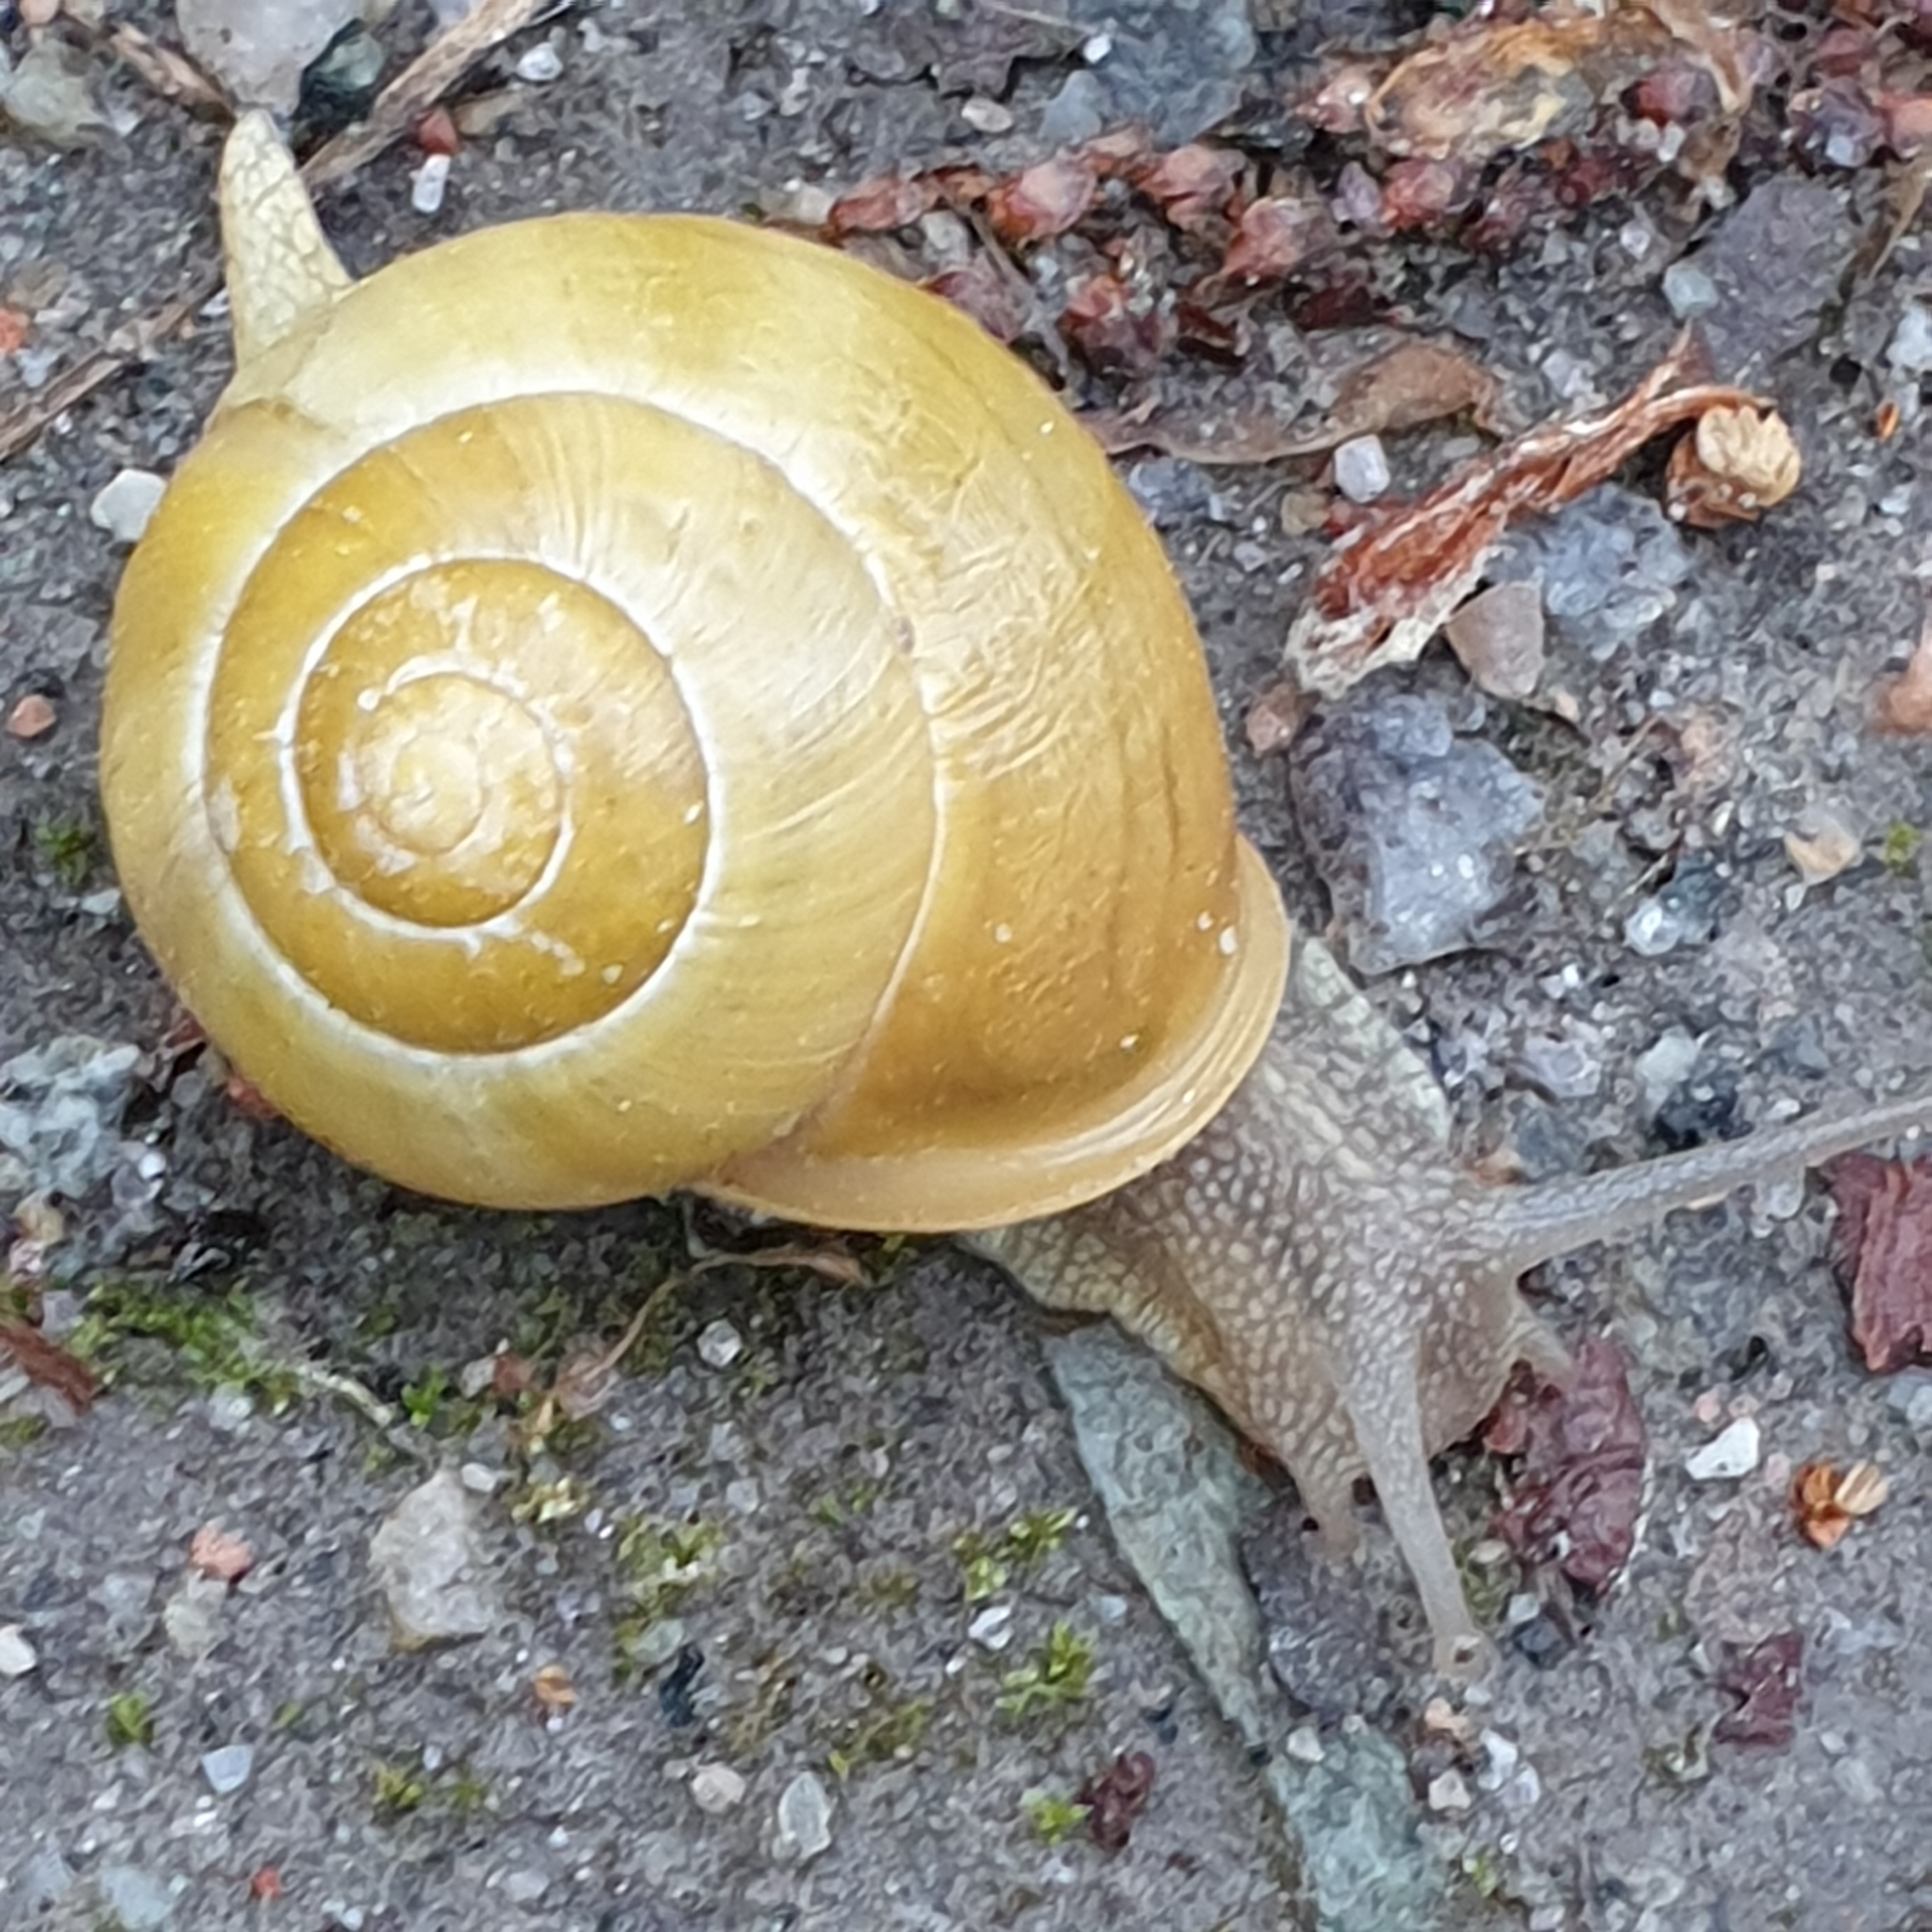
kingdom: Animalia
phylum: Mollusca
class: Gastropoda
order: Stylommatophora
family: Helicidae
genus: Cepaea
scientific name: Cepaea hortensis
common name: White-lip gardensnail
